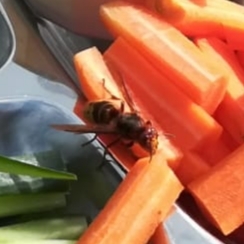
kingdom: Animalia
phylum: Arthropoda
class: Insecta
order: Hymenoptera
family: Vespidae
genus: Vespa
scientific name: Vespa crabro
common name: Hornet
